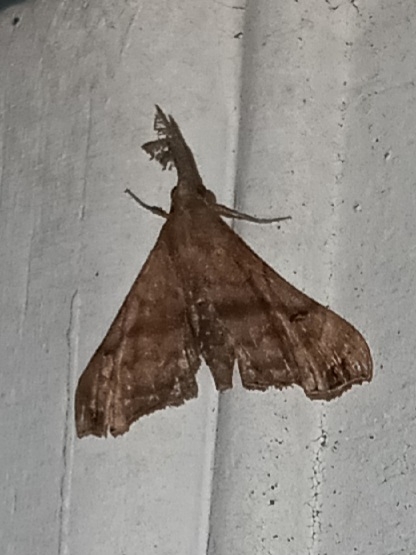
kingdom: Animalia
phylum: Arthropoda
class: Insecta
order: Lepidoptera
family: Erebidae
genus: Palthis
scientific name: Palthis asopialis
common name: Faint-spotted palthis moth
